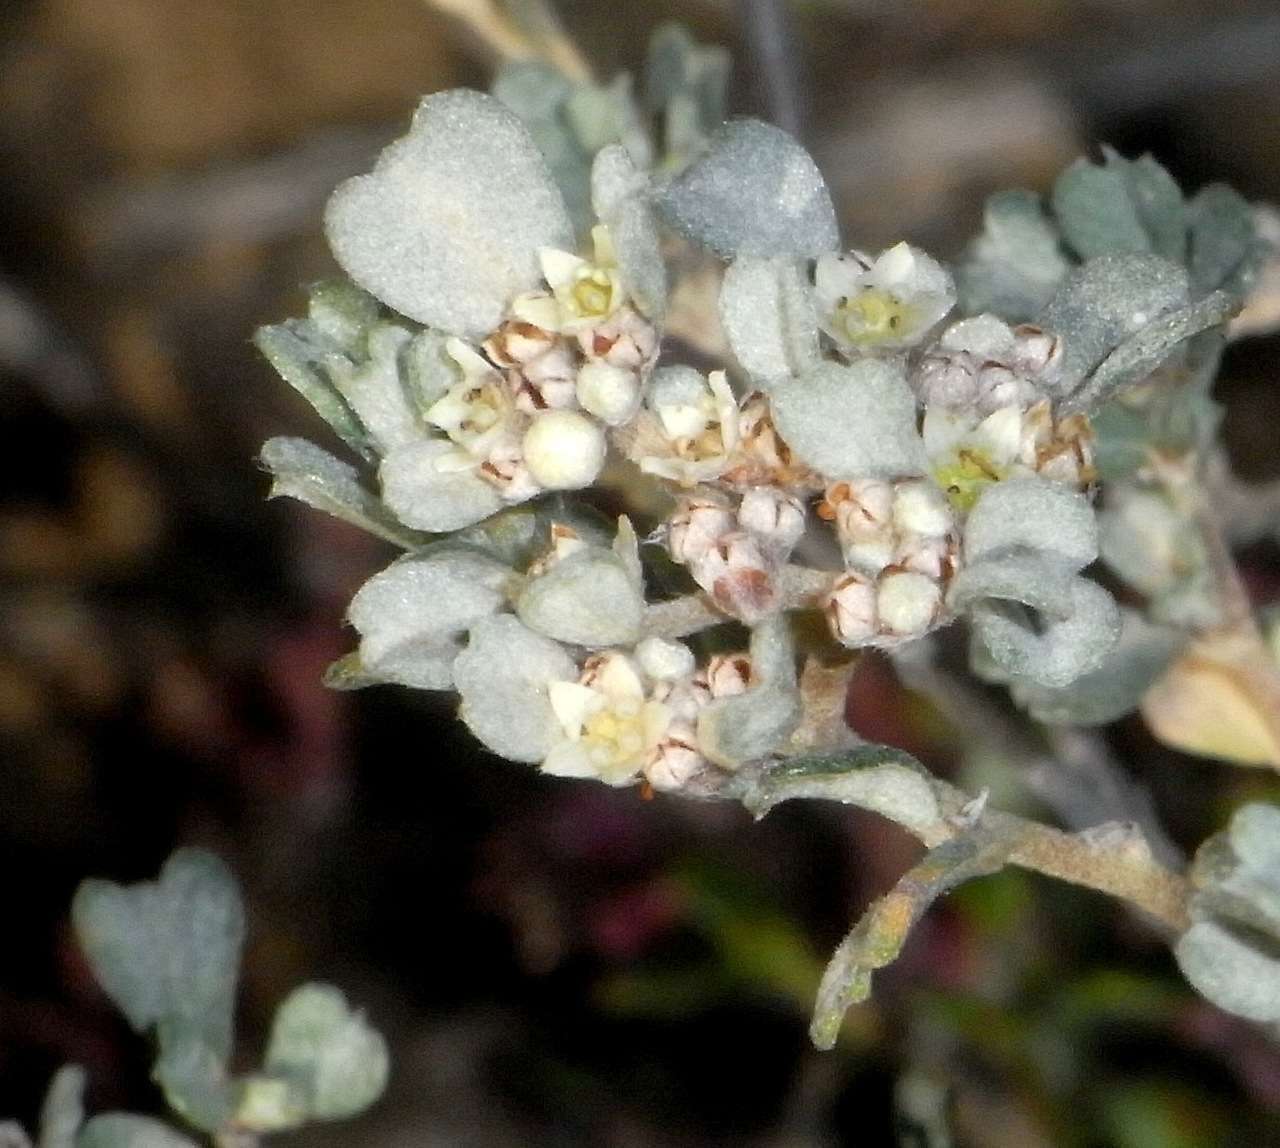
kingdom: Plantae
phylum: Tracheophyta
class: Magnoliopsida
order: Rosales
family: Rhamnaceae
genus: Spyridium
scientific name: Spyridium cinereum
